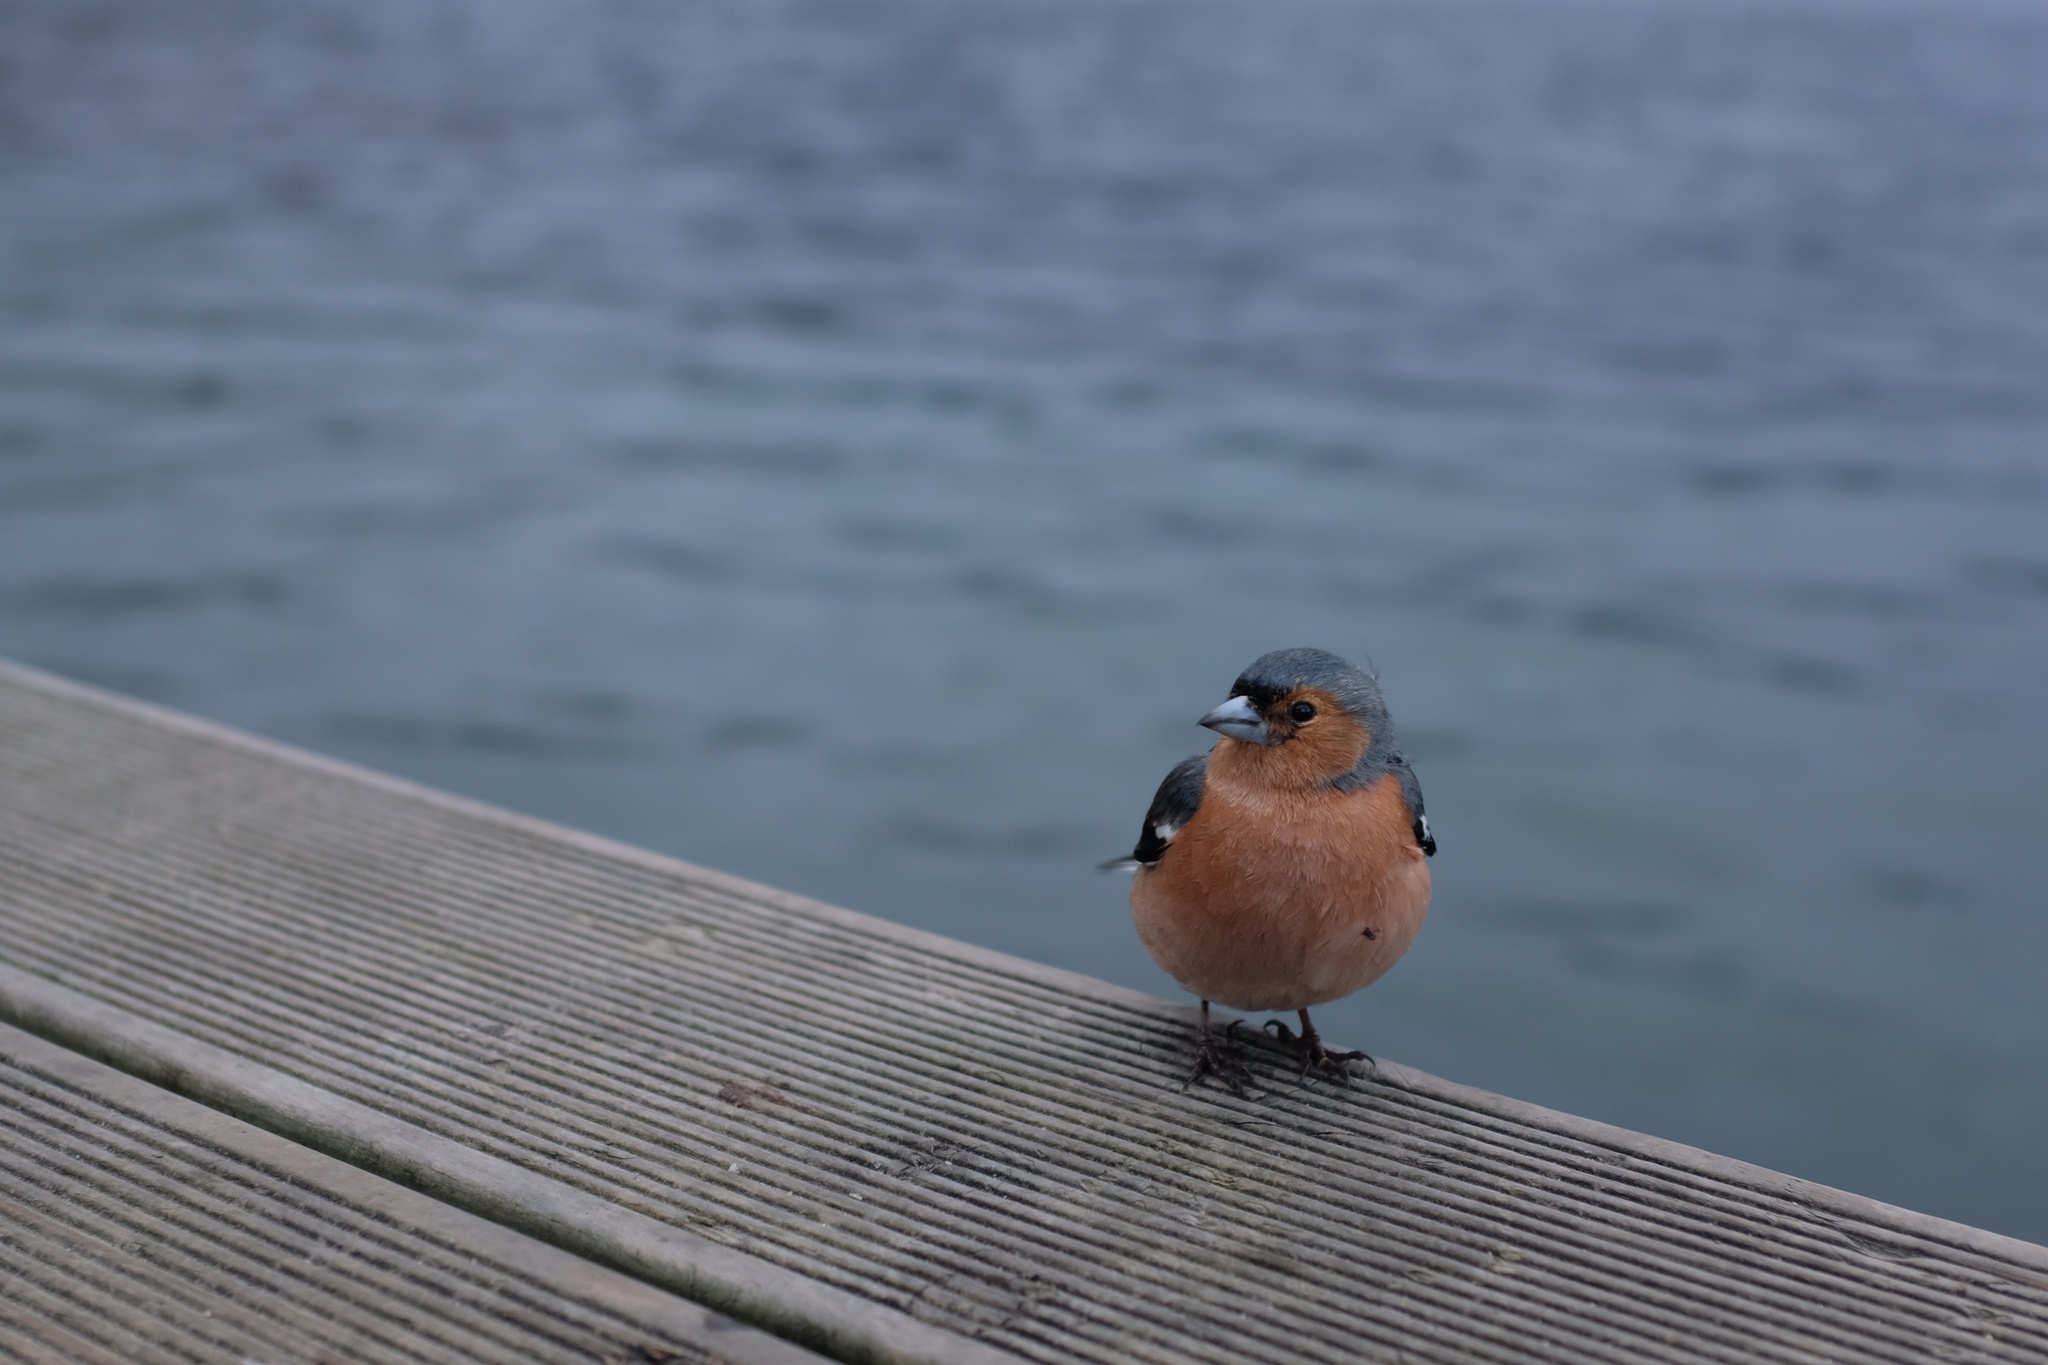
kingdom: Animalia
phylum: Chordata
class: Aves
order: Passeriformes
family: Fringillidae
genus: Fringilla
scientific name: Fringilla coelebs
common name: Common chaffinch
